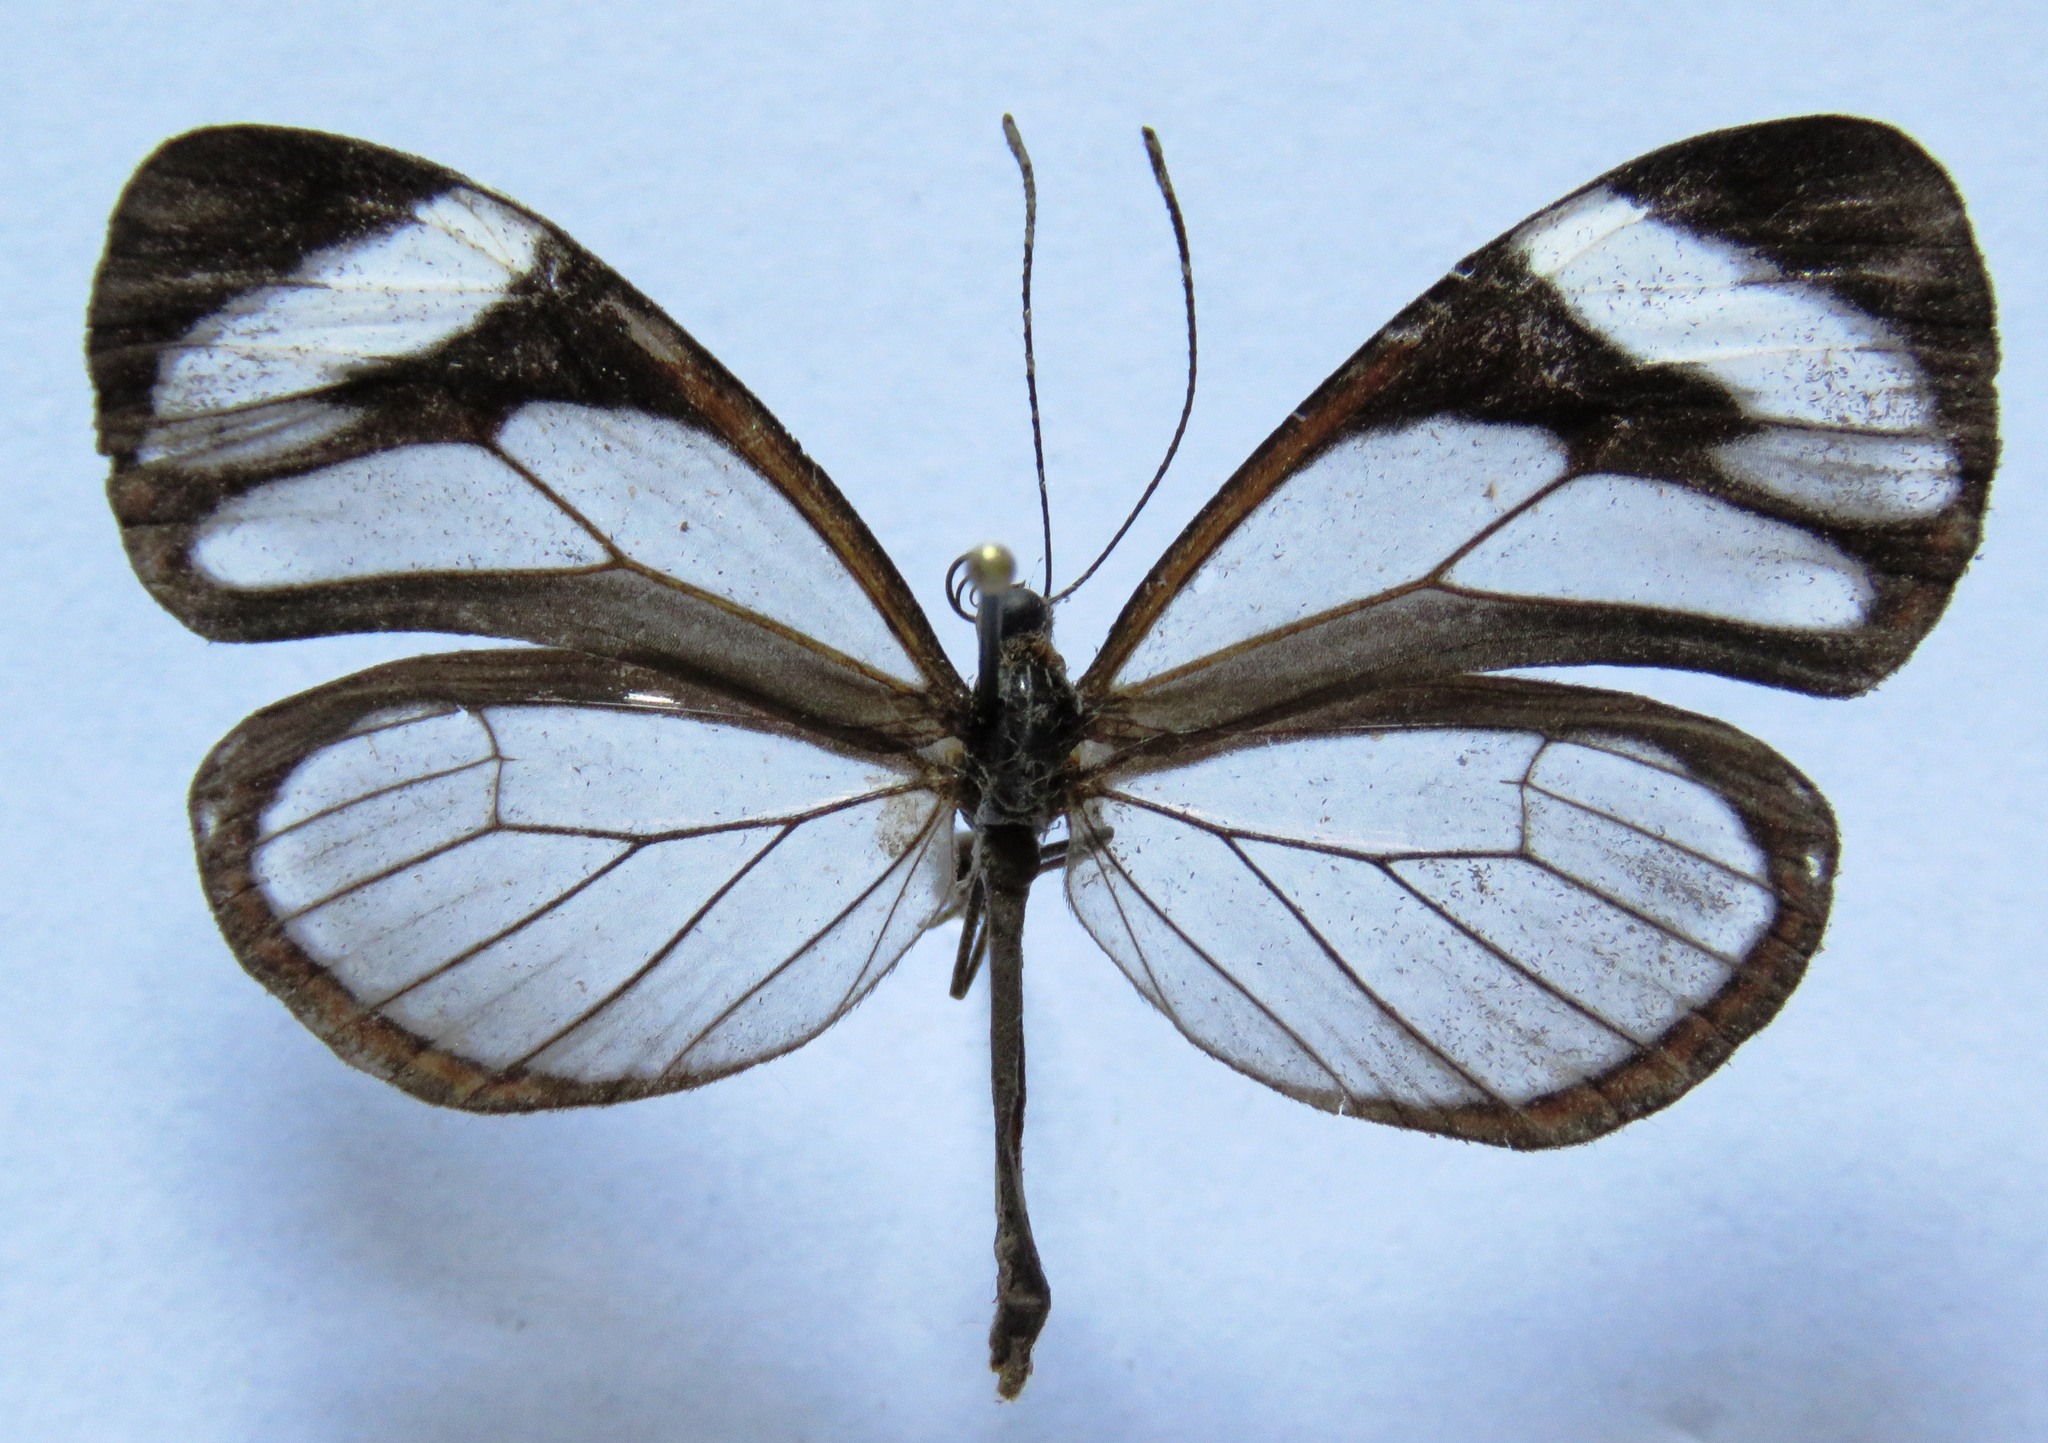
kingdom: Animalia
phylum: Arthropoda
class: Insecta
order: Lepidoptera
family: Nymphalidae
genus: Ithomia
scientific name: Ithomia patilla
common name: Patilla clearwing
